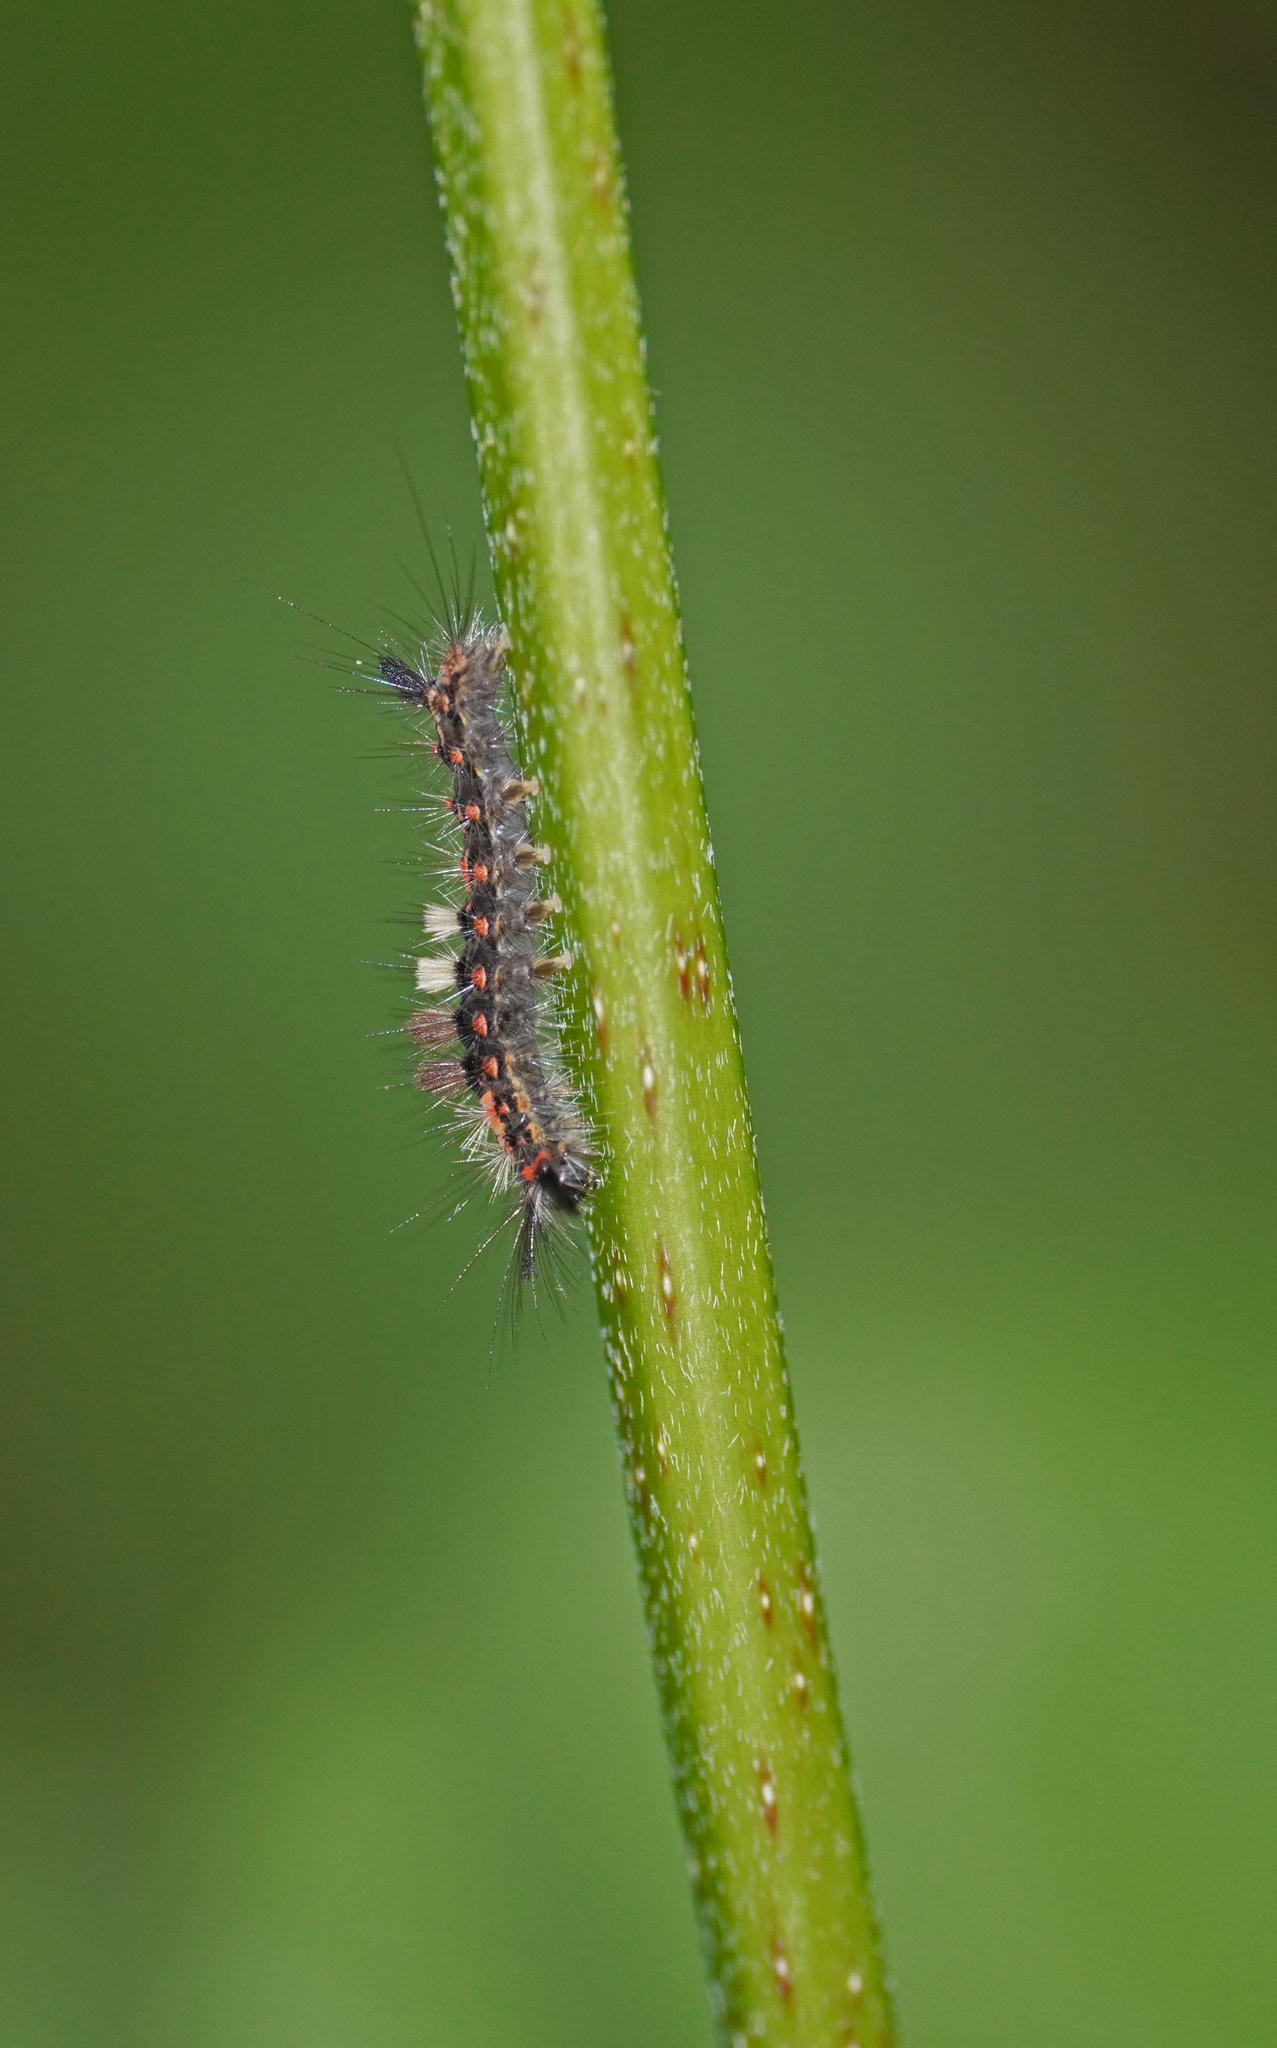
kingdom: Animalia
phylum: Arthropoda
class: Insecta
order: Lepidoptera
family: Erebidae
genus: Orgyia
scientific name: Orgyia antiqua
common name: Vapourer
